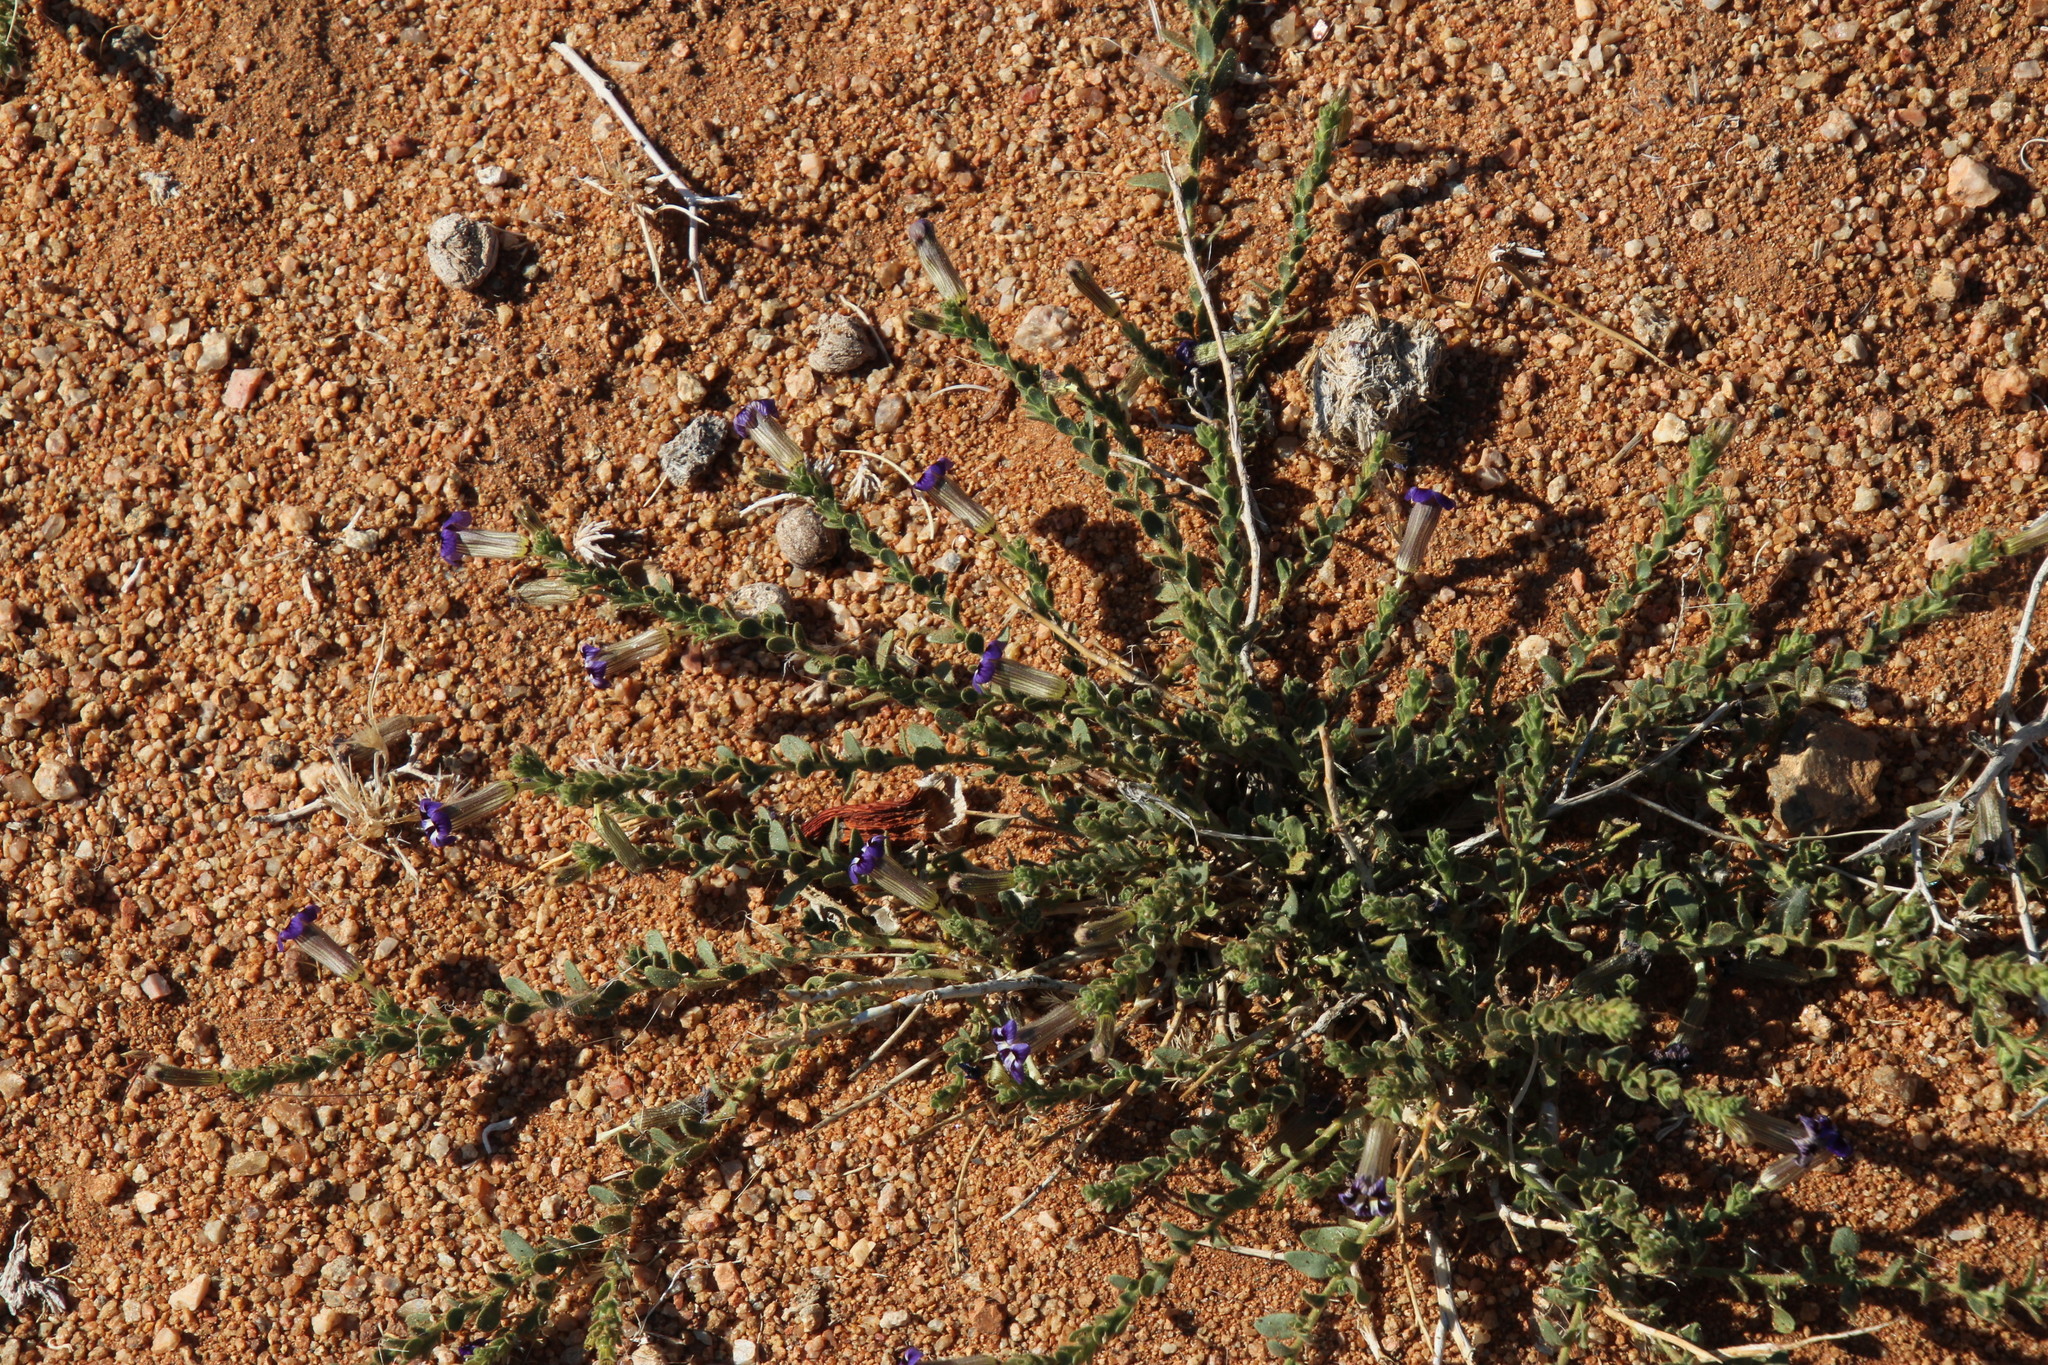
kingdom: Plantae
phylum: Tracheophyta
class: Magnoliopsida
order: Lamiales
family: Scrophulariaceae
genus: Peliostomum
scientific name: Peliostomum virgatum
